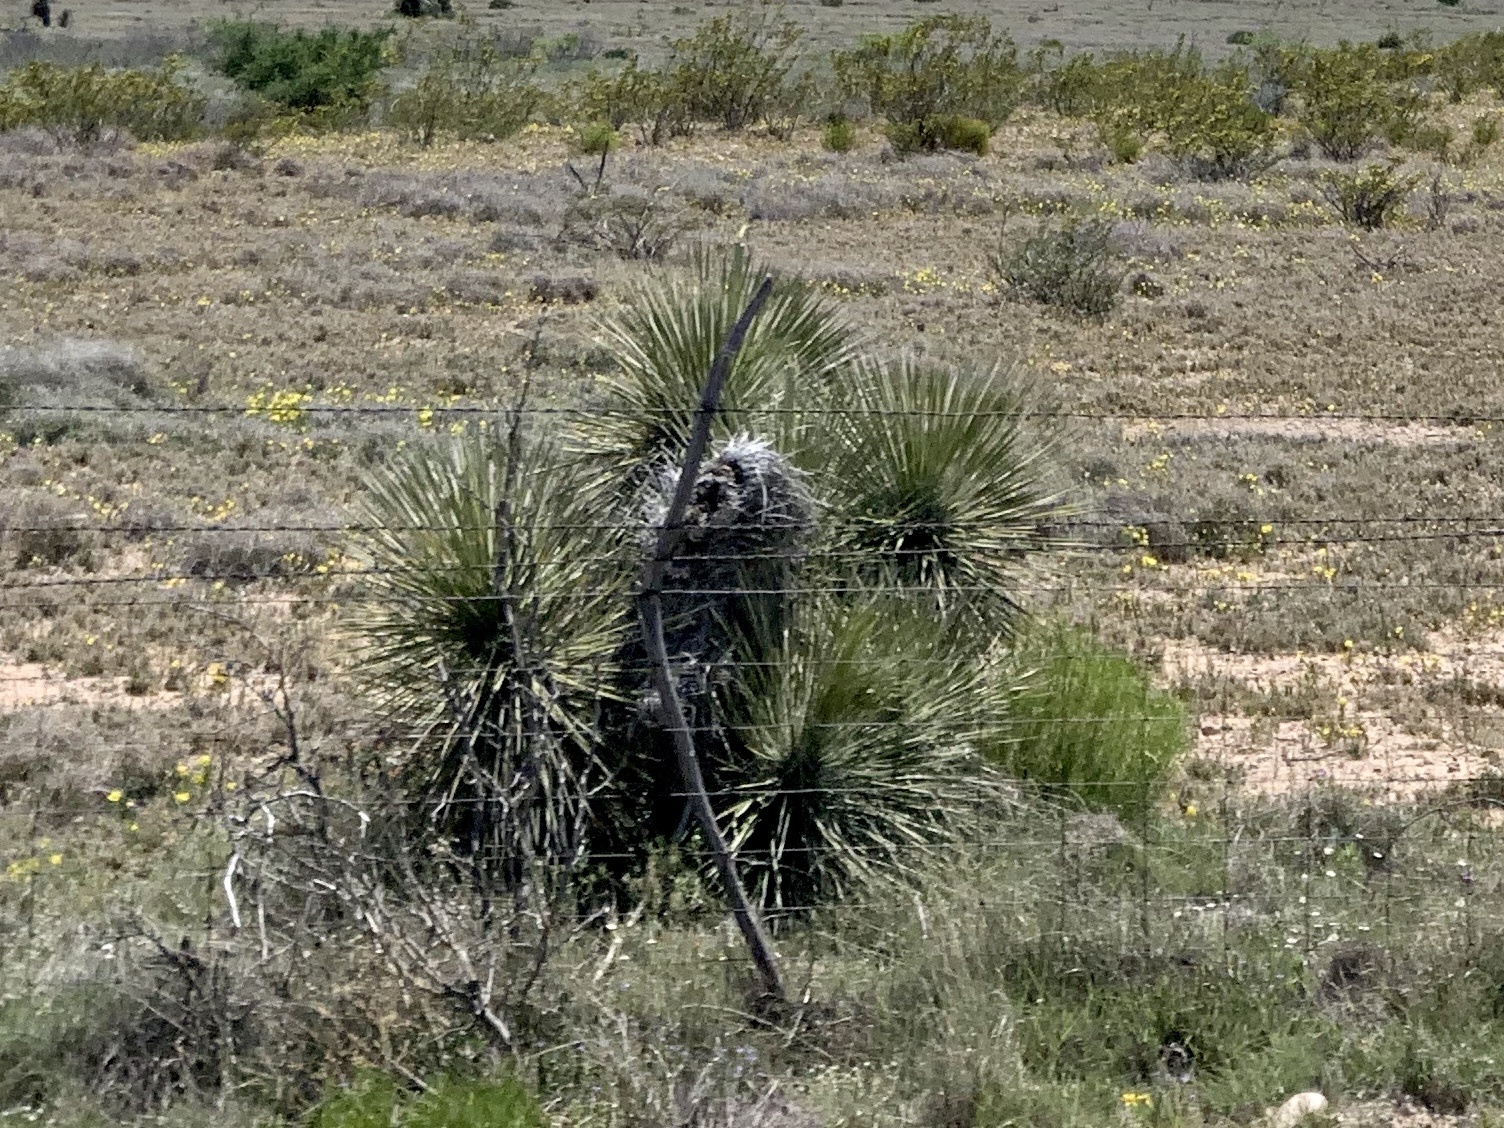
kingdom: Plantae
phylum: Tracheophyta
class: Liliopsida
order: Asparagales
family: Asparagaceae
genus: Yucca
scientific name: Yucca elata
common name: Palmella
